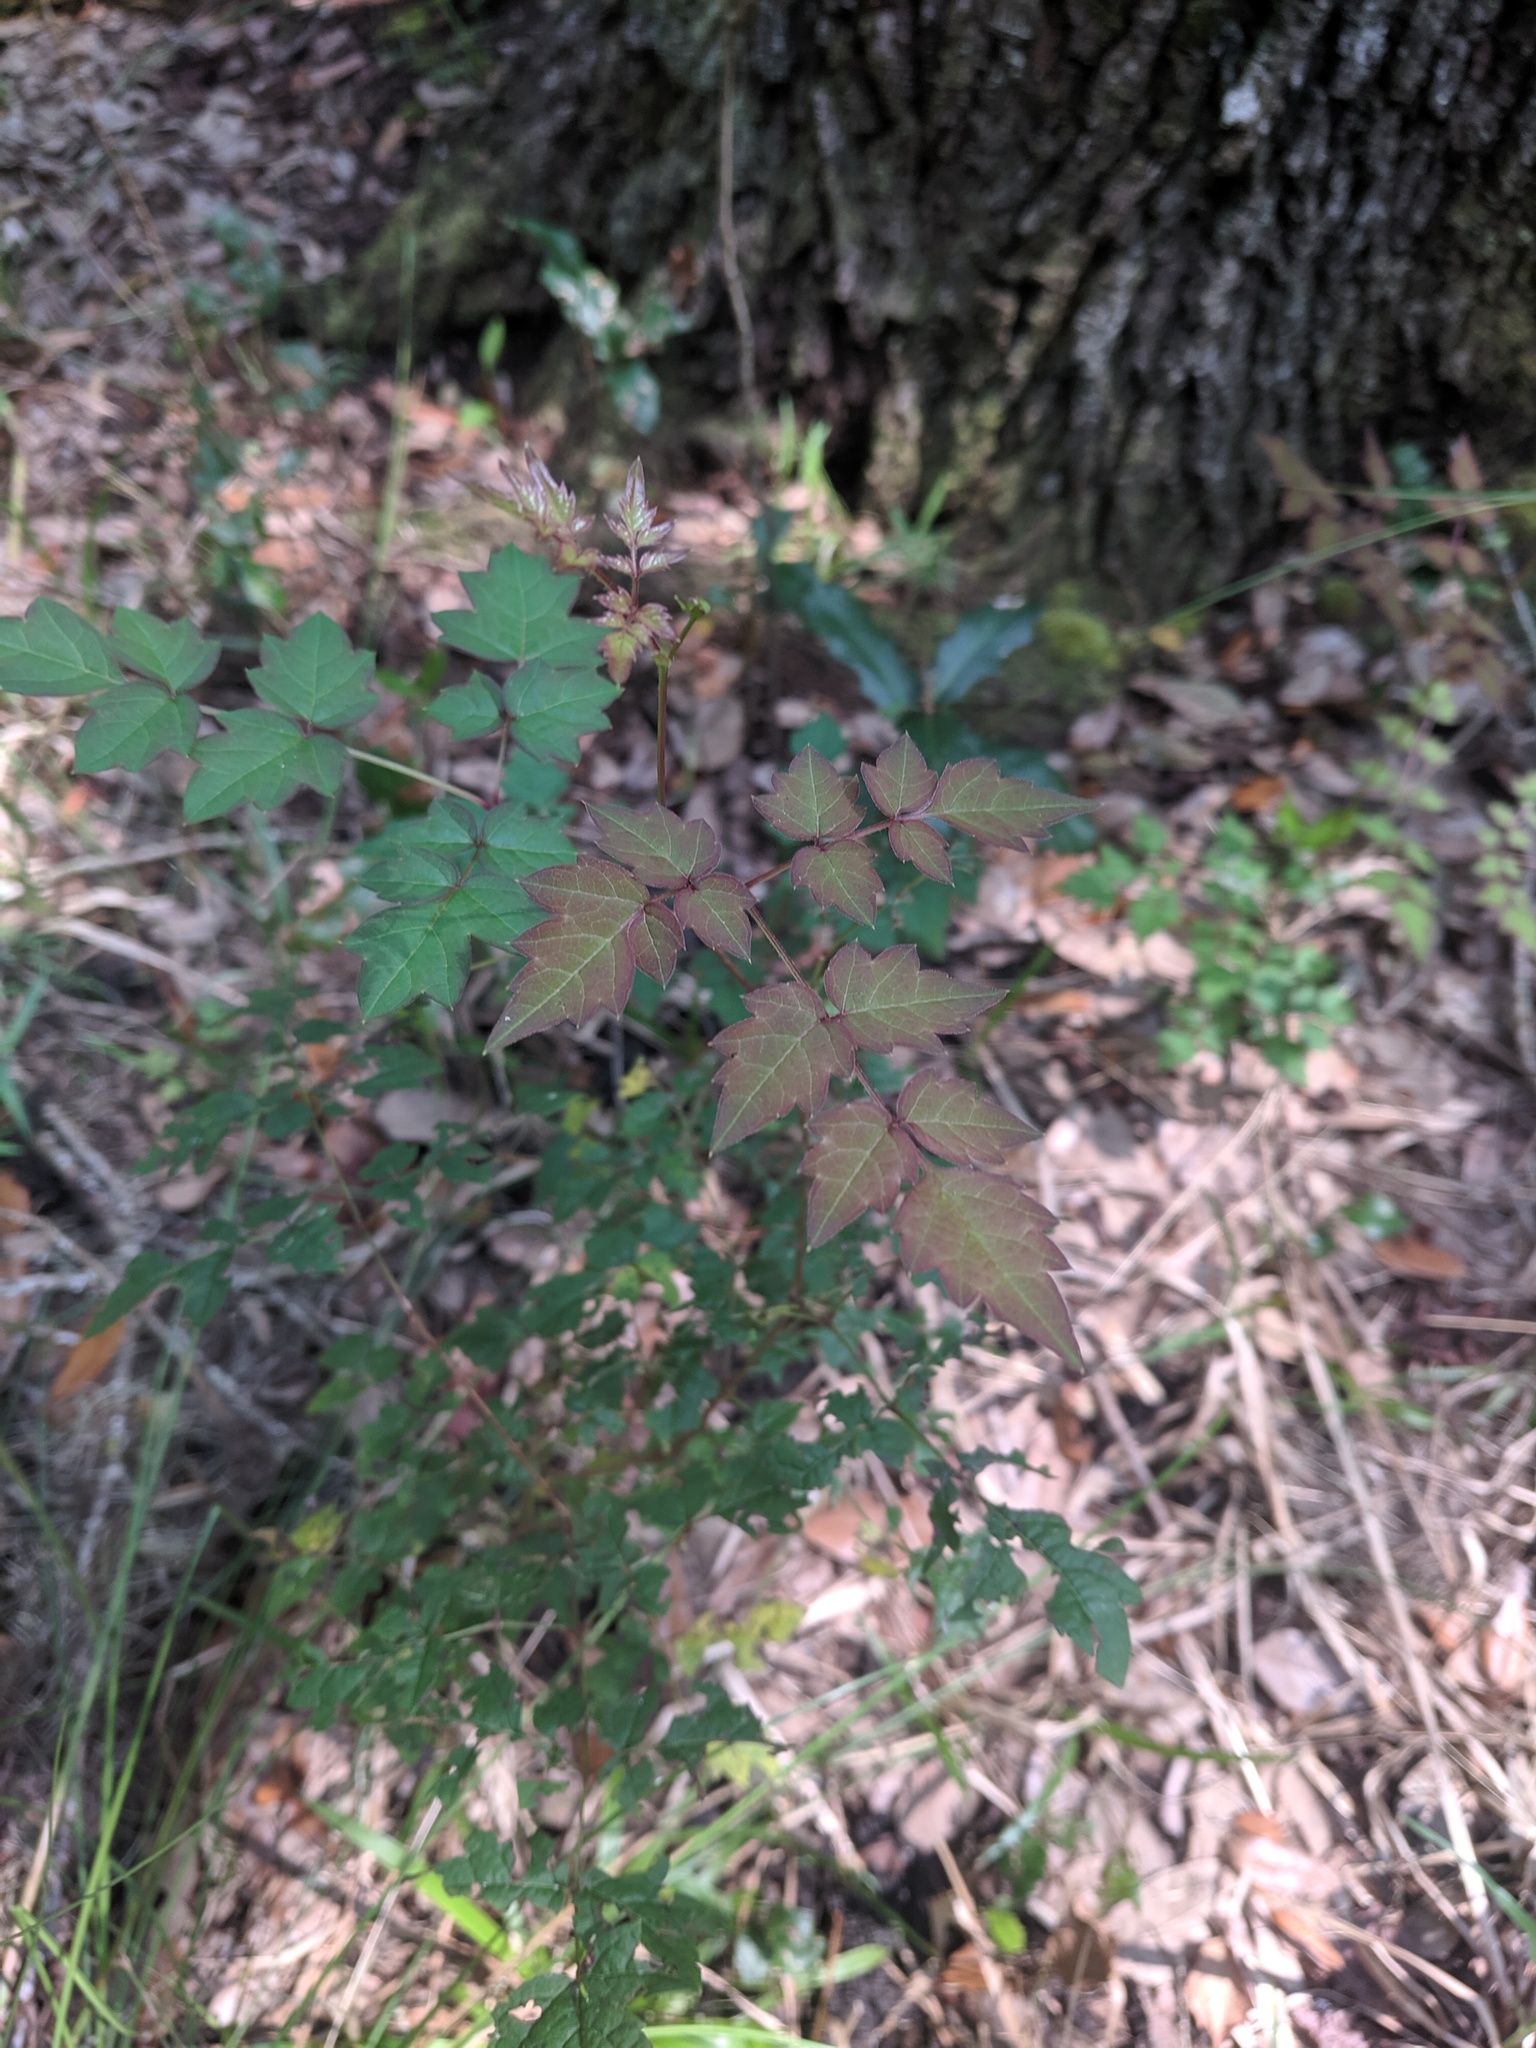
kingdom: Plantae
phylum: Tracheophyta
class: Magnoliopsida
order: Vitales
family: Vitaceae
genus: Nekemias
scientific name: Nekemias arborea
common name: Peppervine
